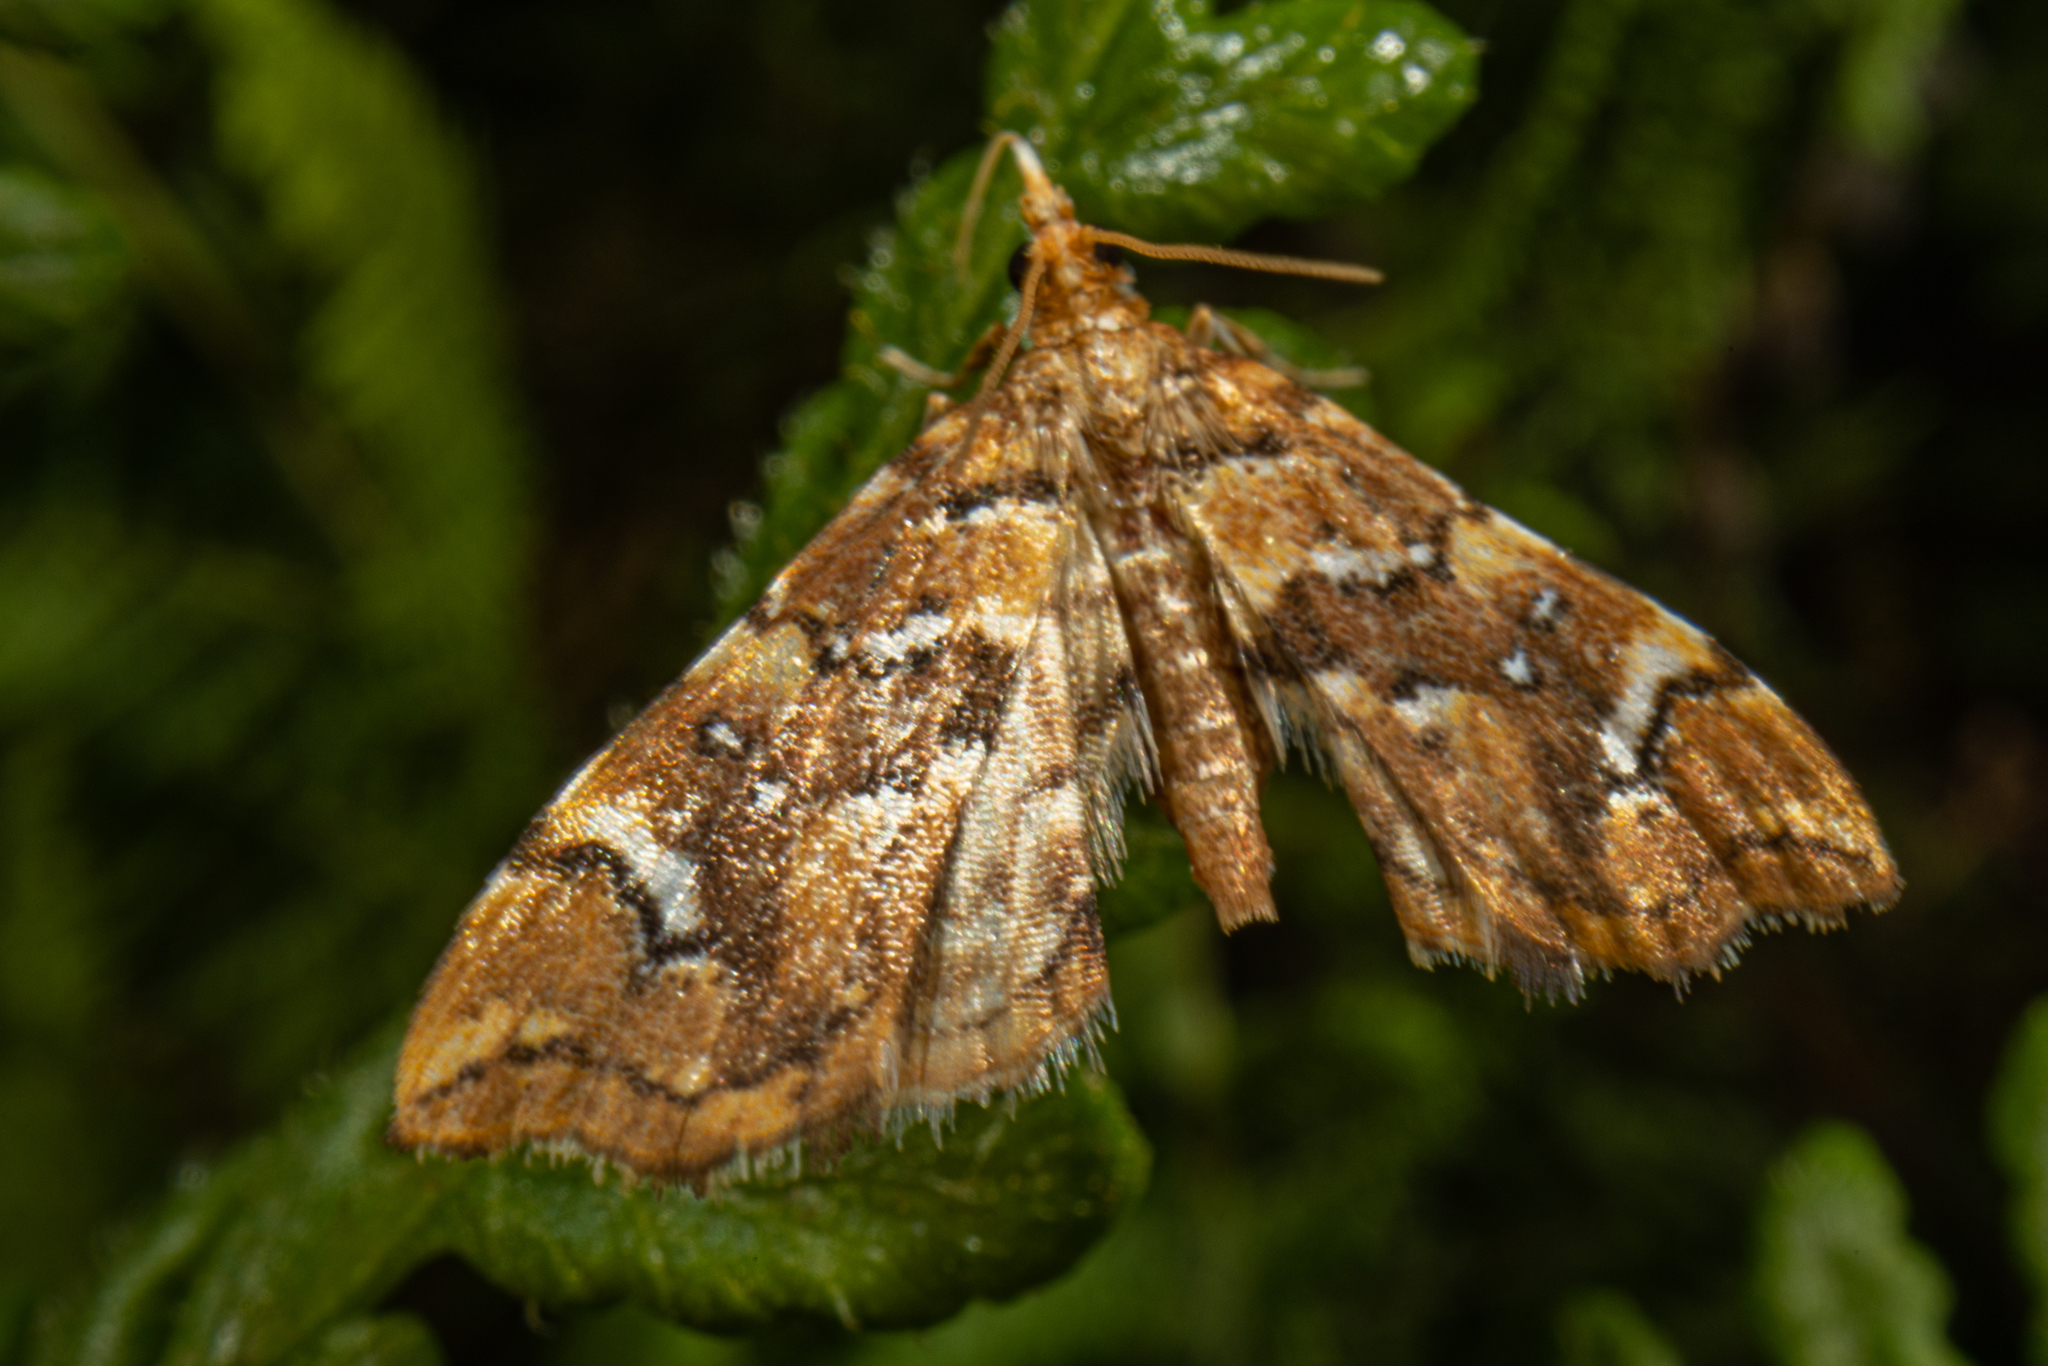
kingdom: Animalia
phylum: Arthropoda
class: Insecta
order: Lepidoptera
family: Pyralidae
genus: Musotima
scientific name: Musotima nitidalis
